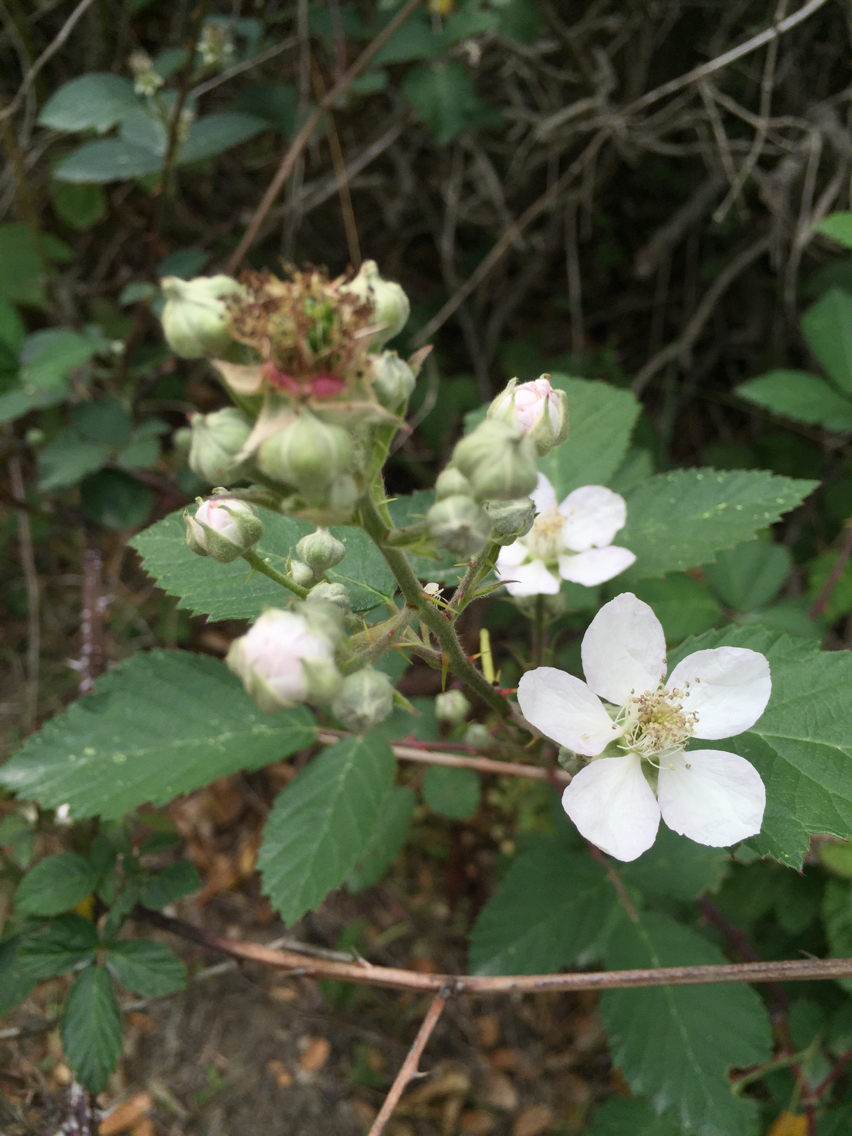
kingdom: Plantae
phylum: Tracheophyta
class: Magnoliopsida
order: Rosales
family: Rosaceae
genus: Rubus
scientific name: Rubus armeniacus
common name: Himalayan blackberry
